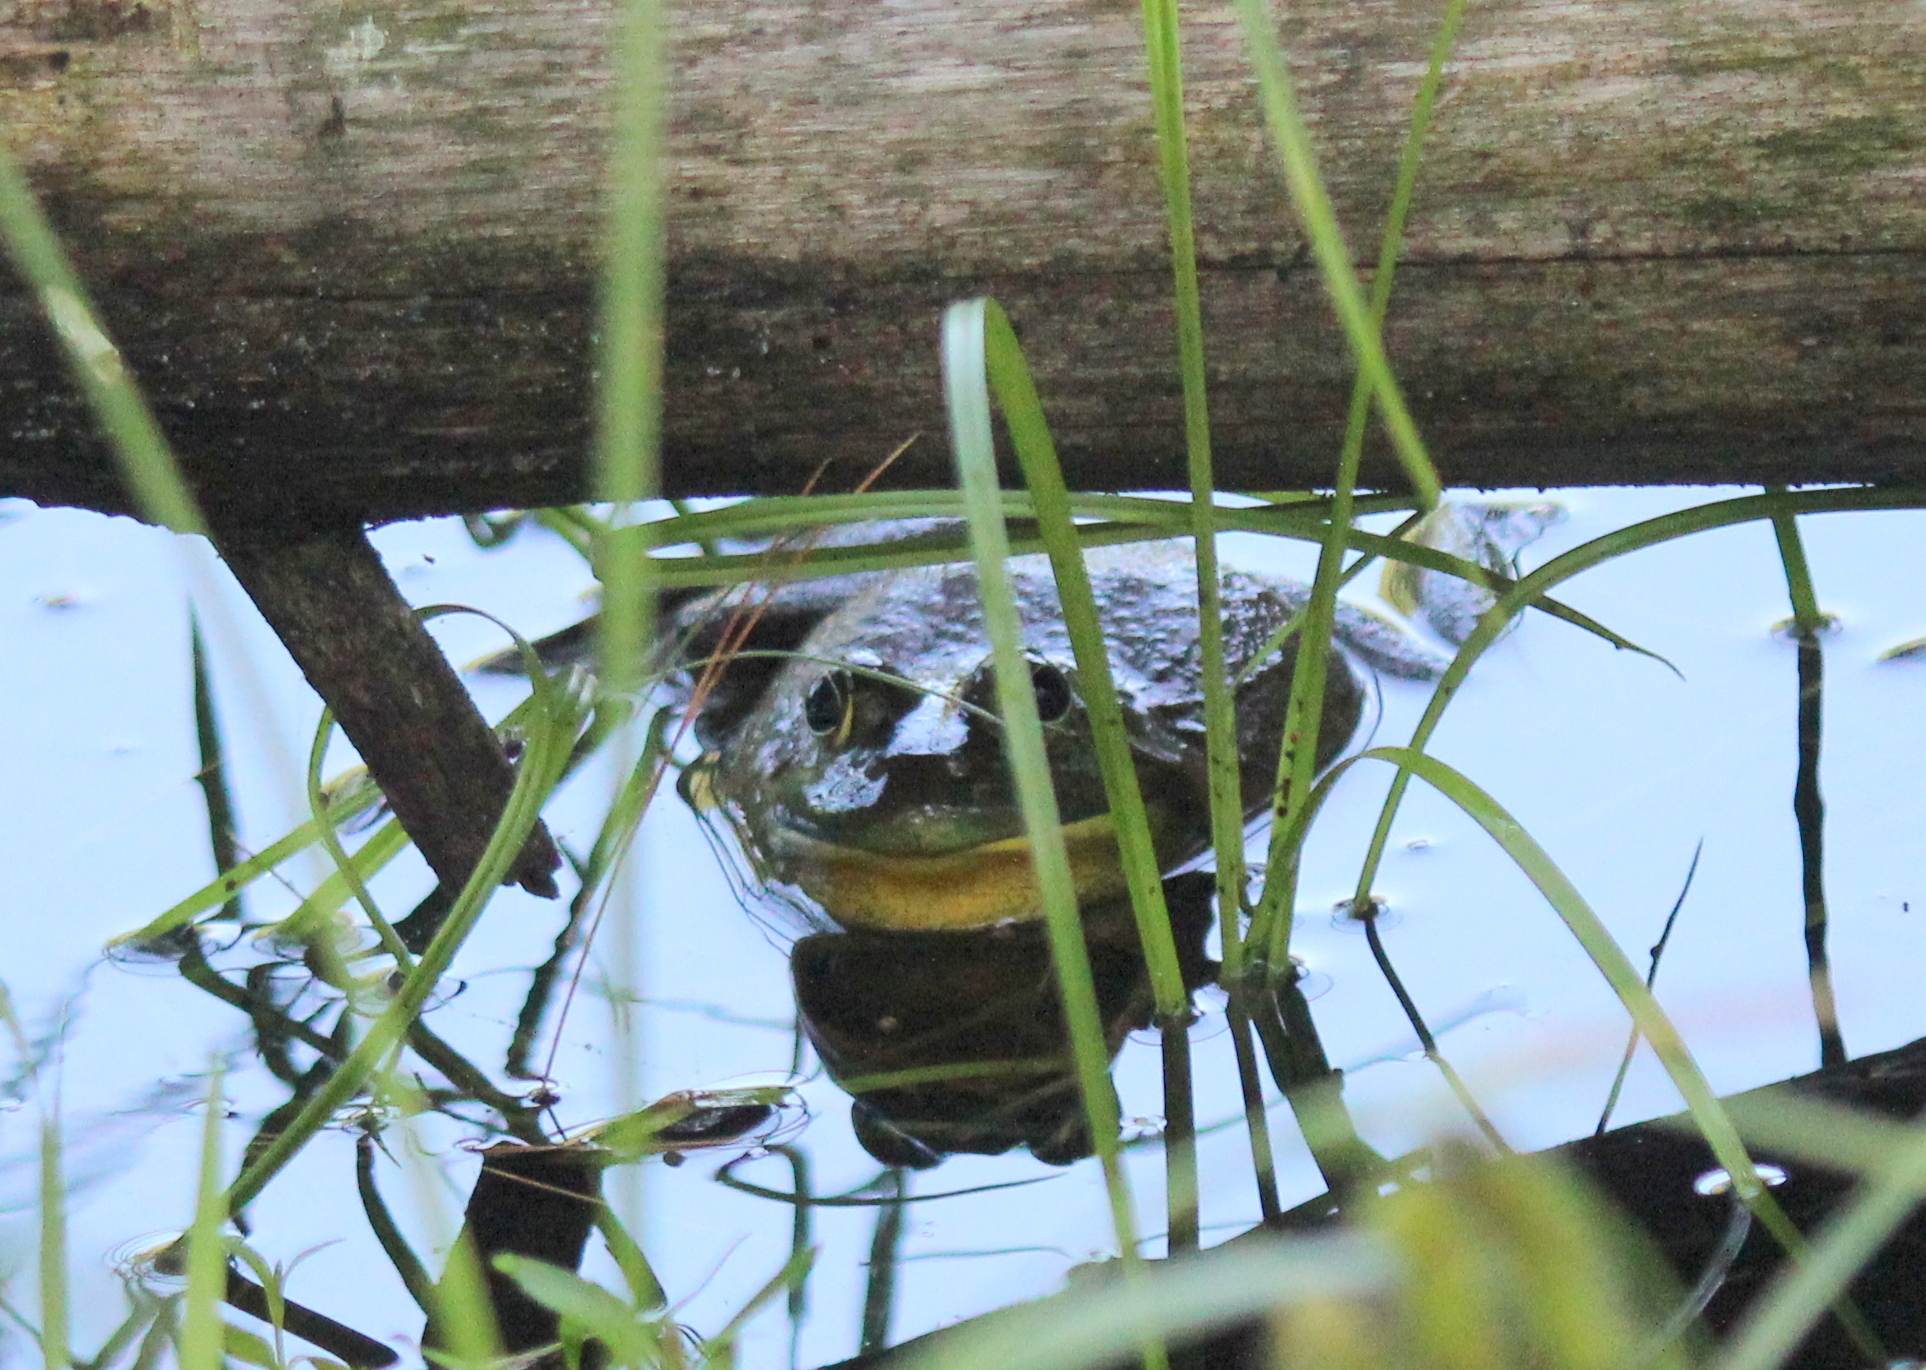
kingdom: Animalia
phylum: Chordata
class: Amphibia
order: Anura
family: Ranidae
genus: Lithobates
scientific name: Lithobates catesbeianus
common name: American bullfrog
